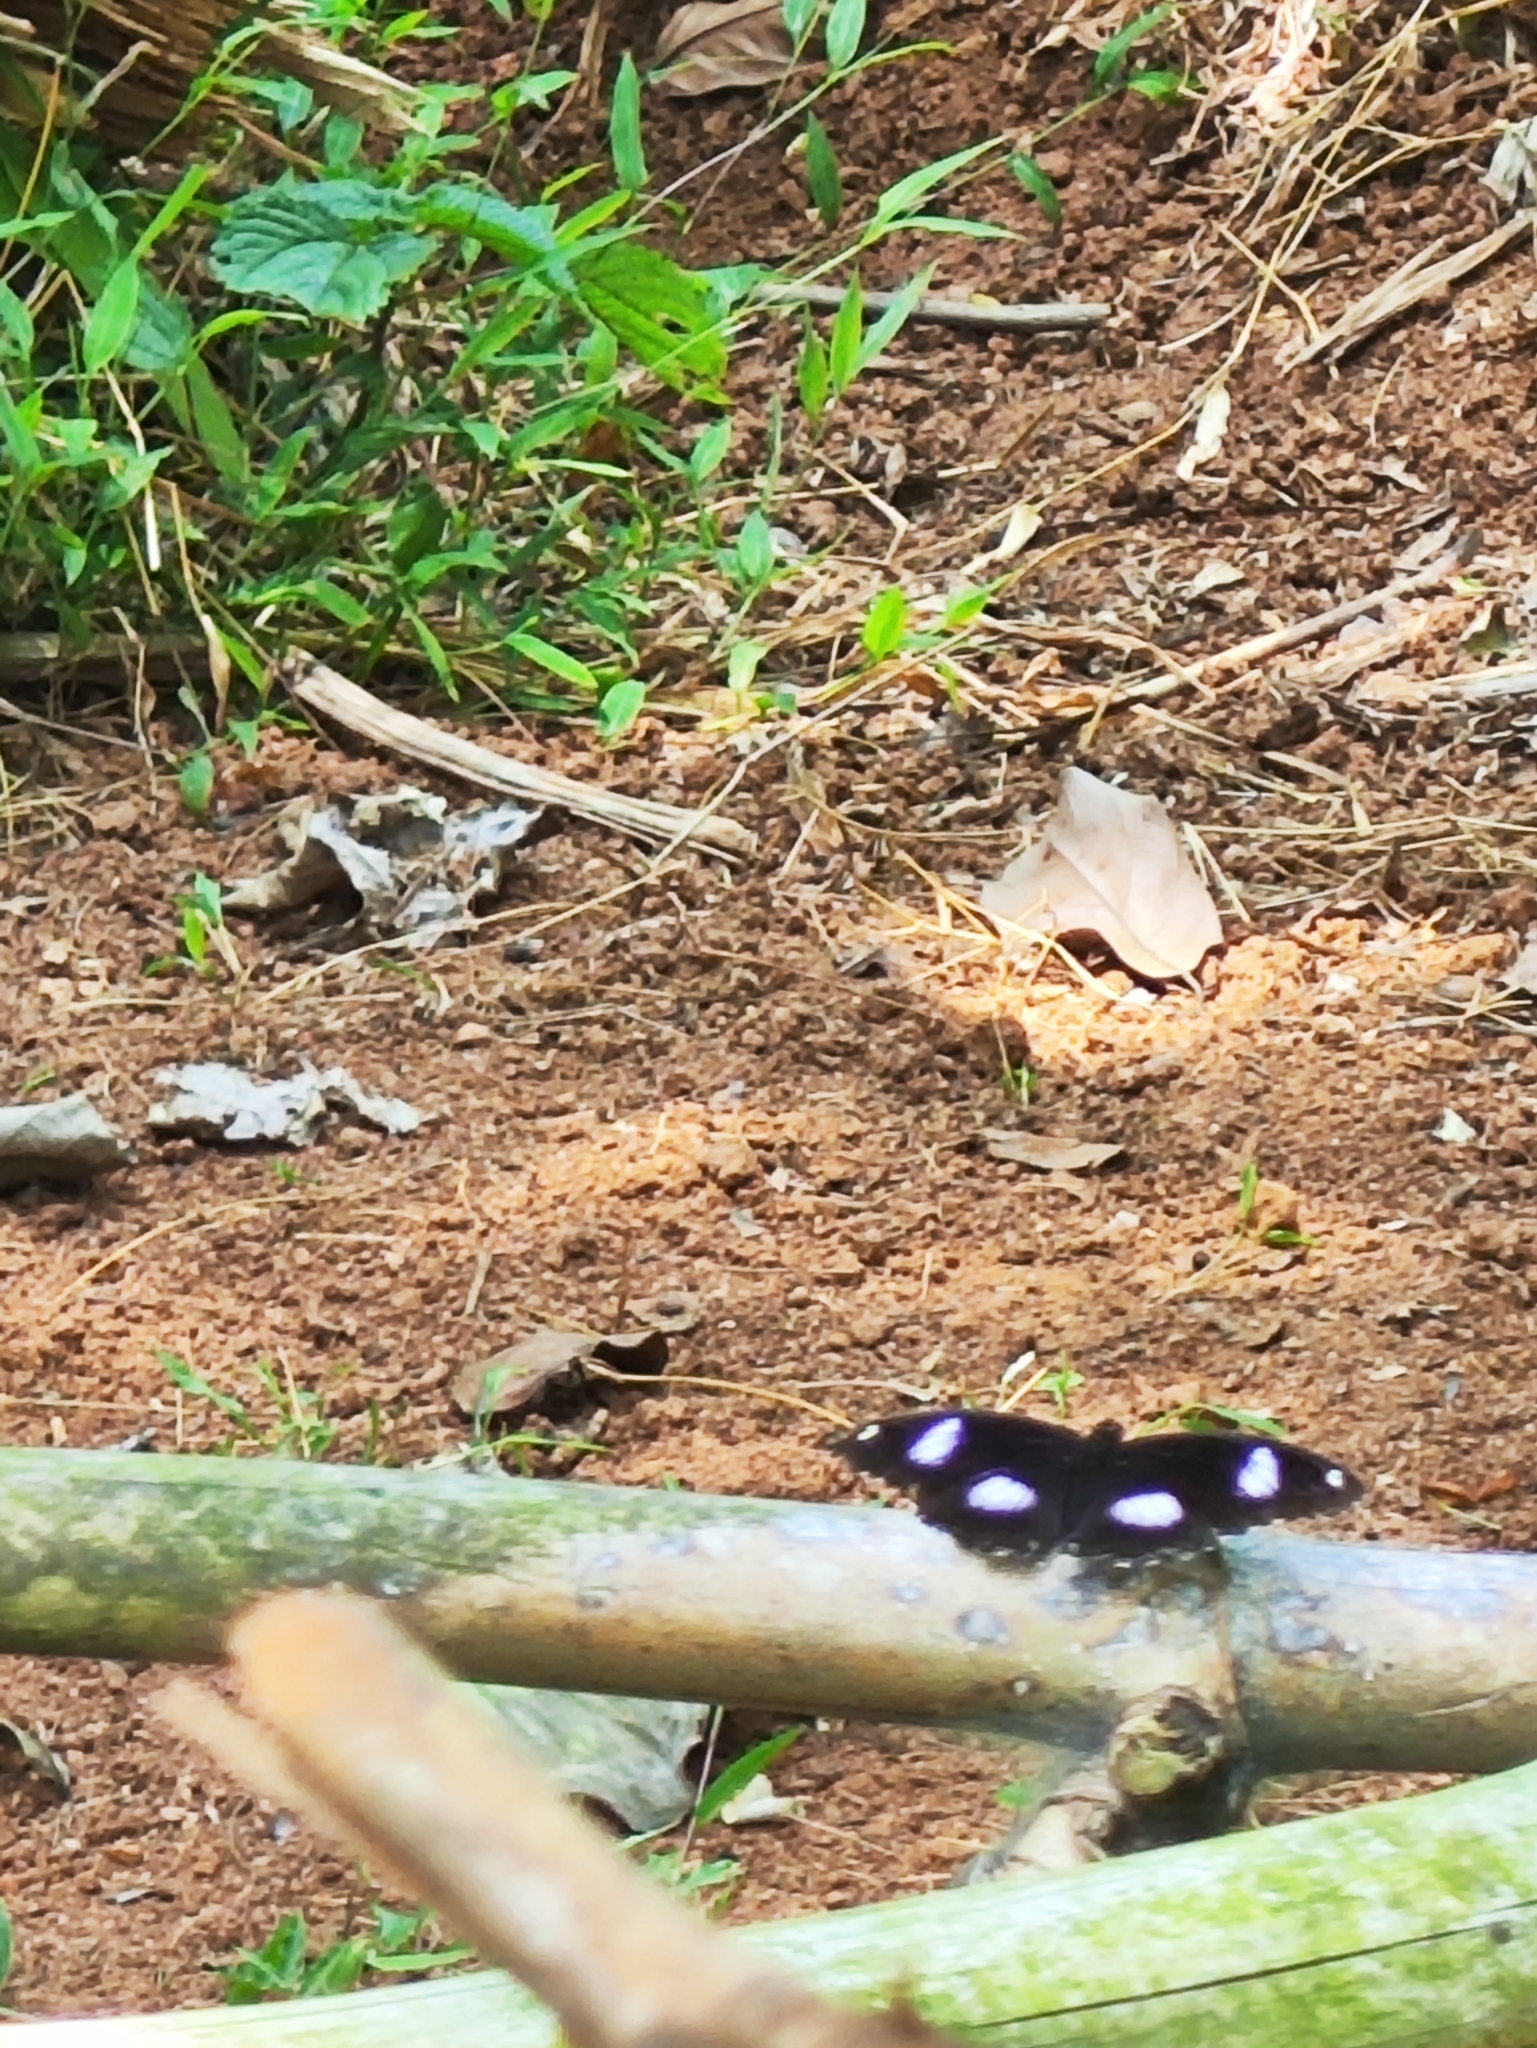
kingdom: Animalia
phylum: Arthropoda
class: Insecta
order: Lepidoptera
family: Nymphalidae
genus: Hypolimnas
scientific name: Hypolimnas bolina
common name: Great eggfly
